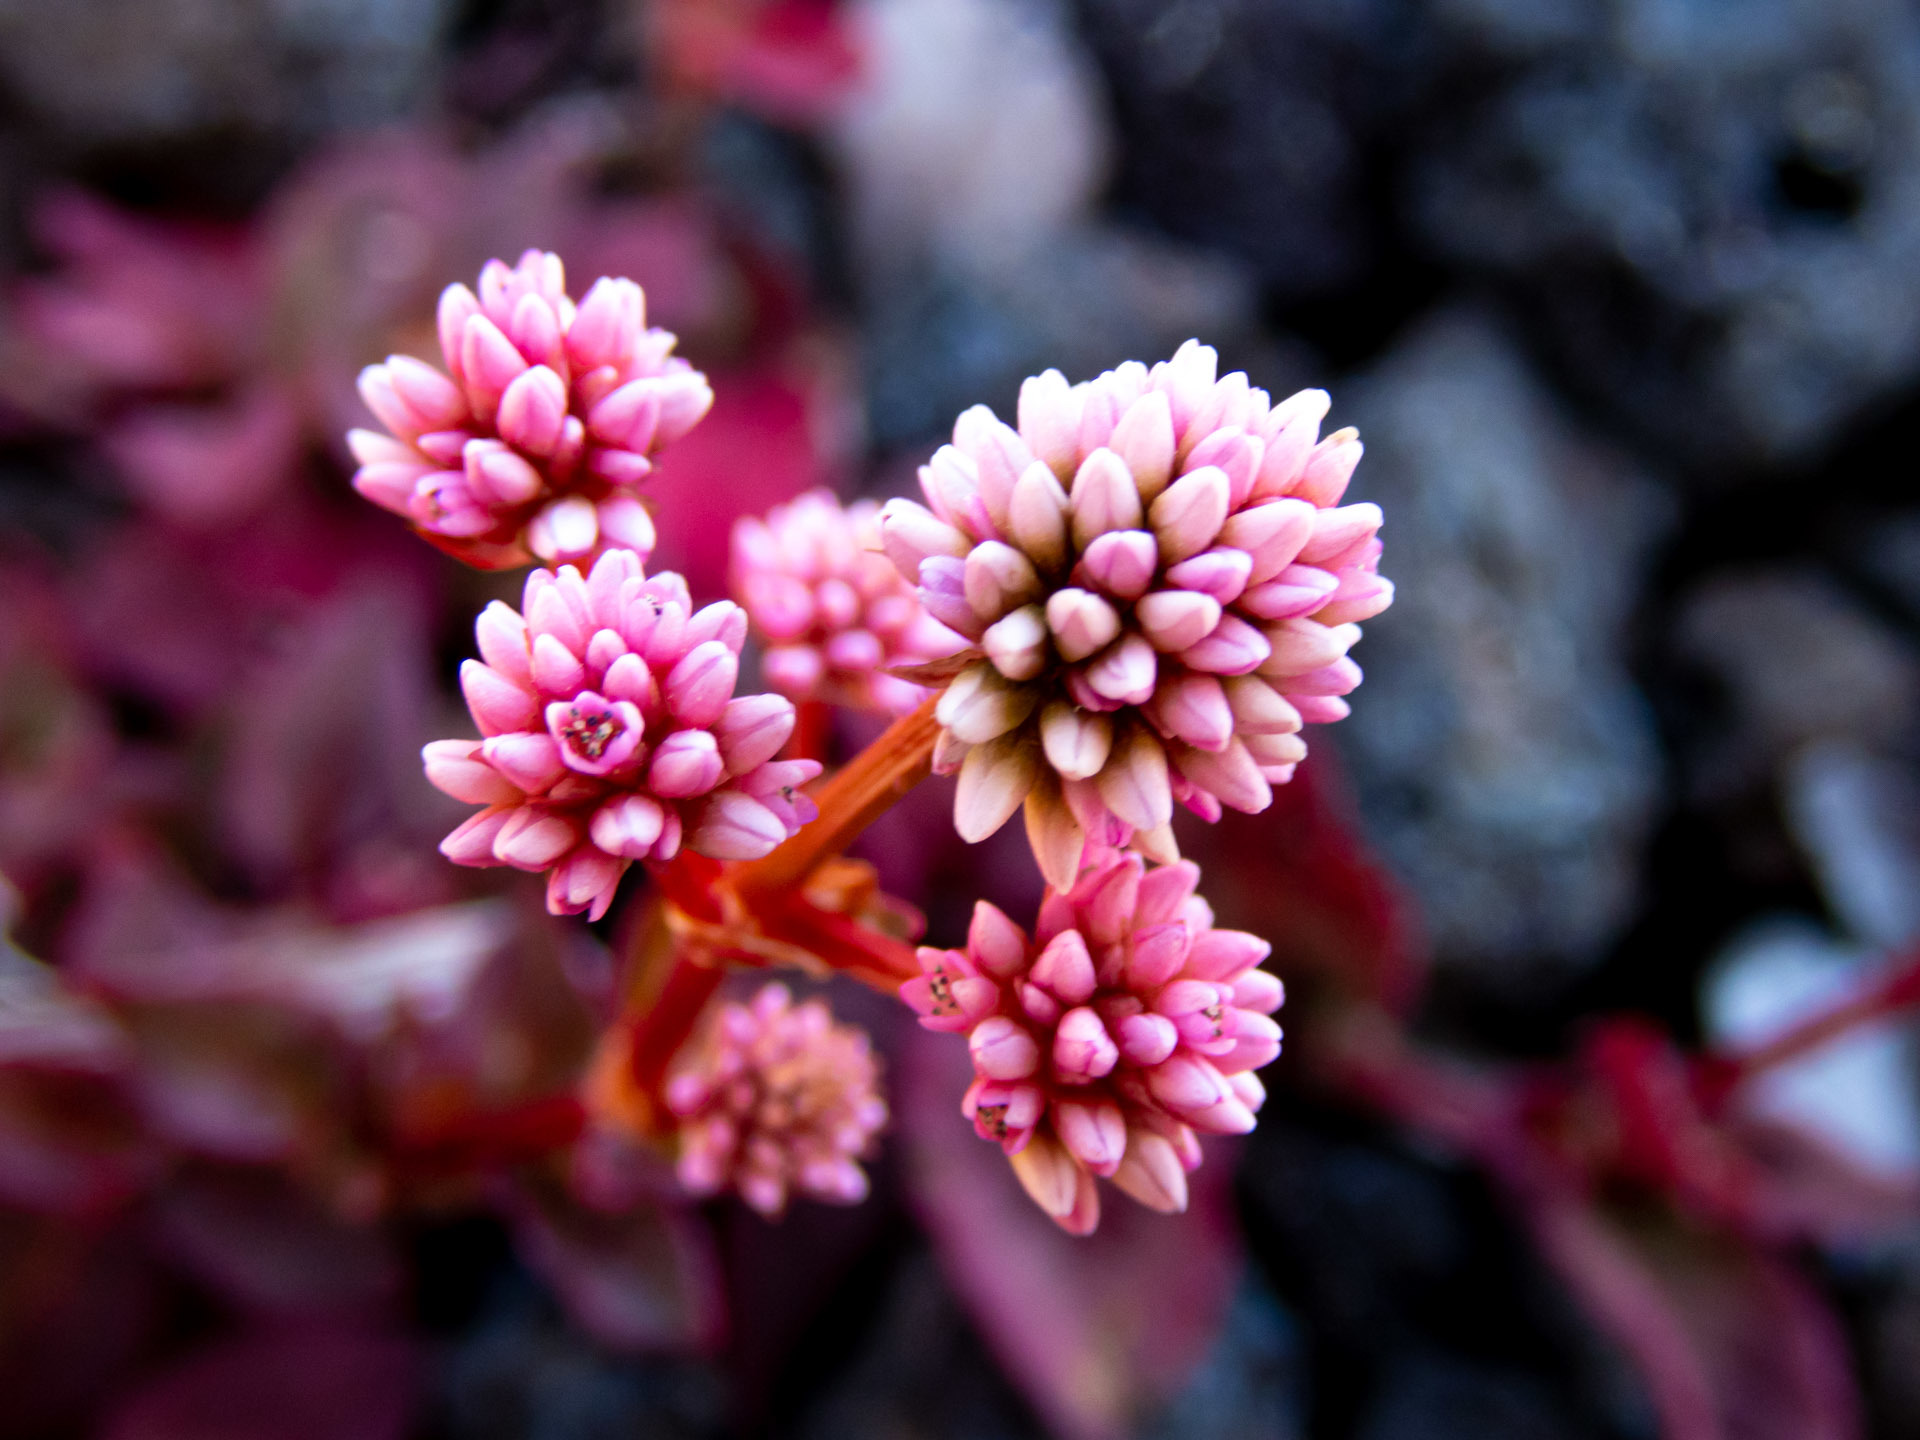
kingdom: Plantae
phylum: Tracheophyta
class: Magnoliopsida
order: Caryophyllales
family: Polygonaceae
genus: Persicaria
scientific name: Persicaria capitata
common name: Pinkhead smartweed
